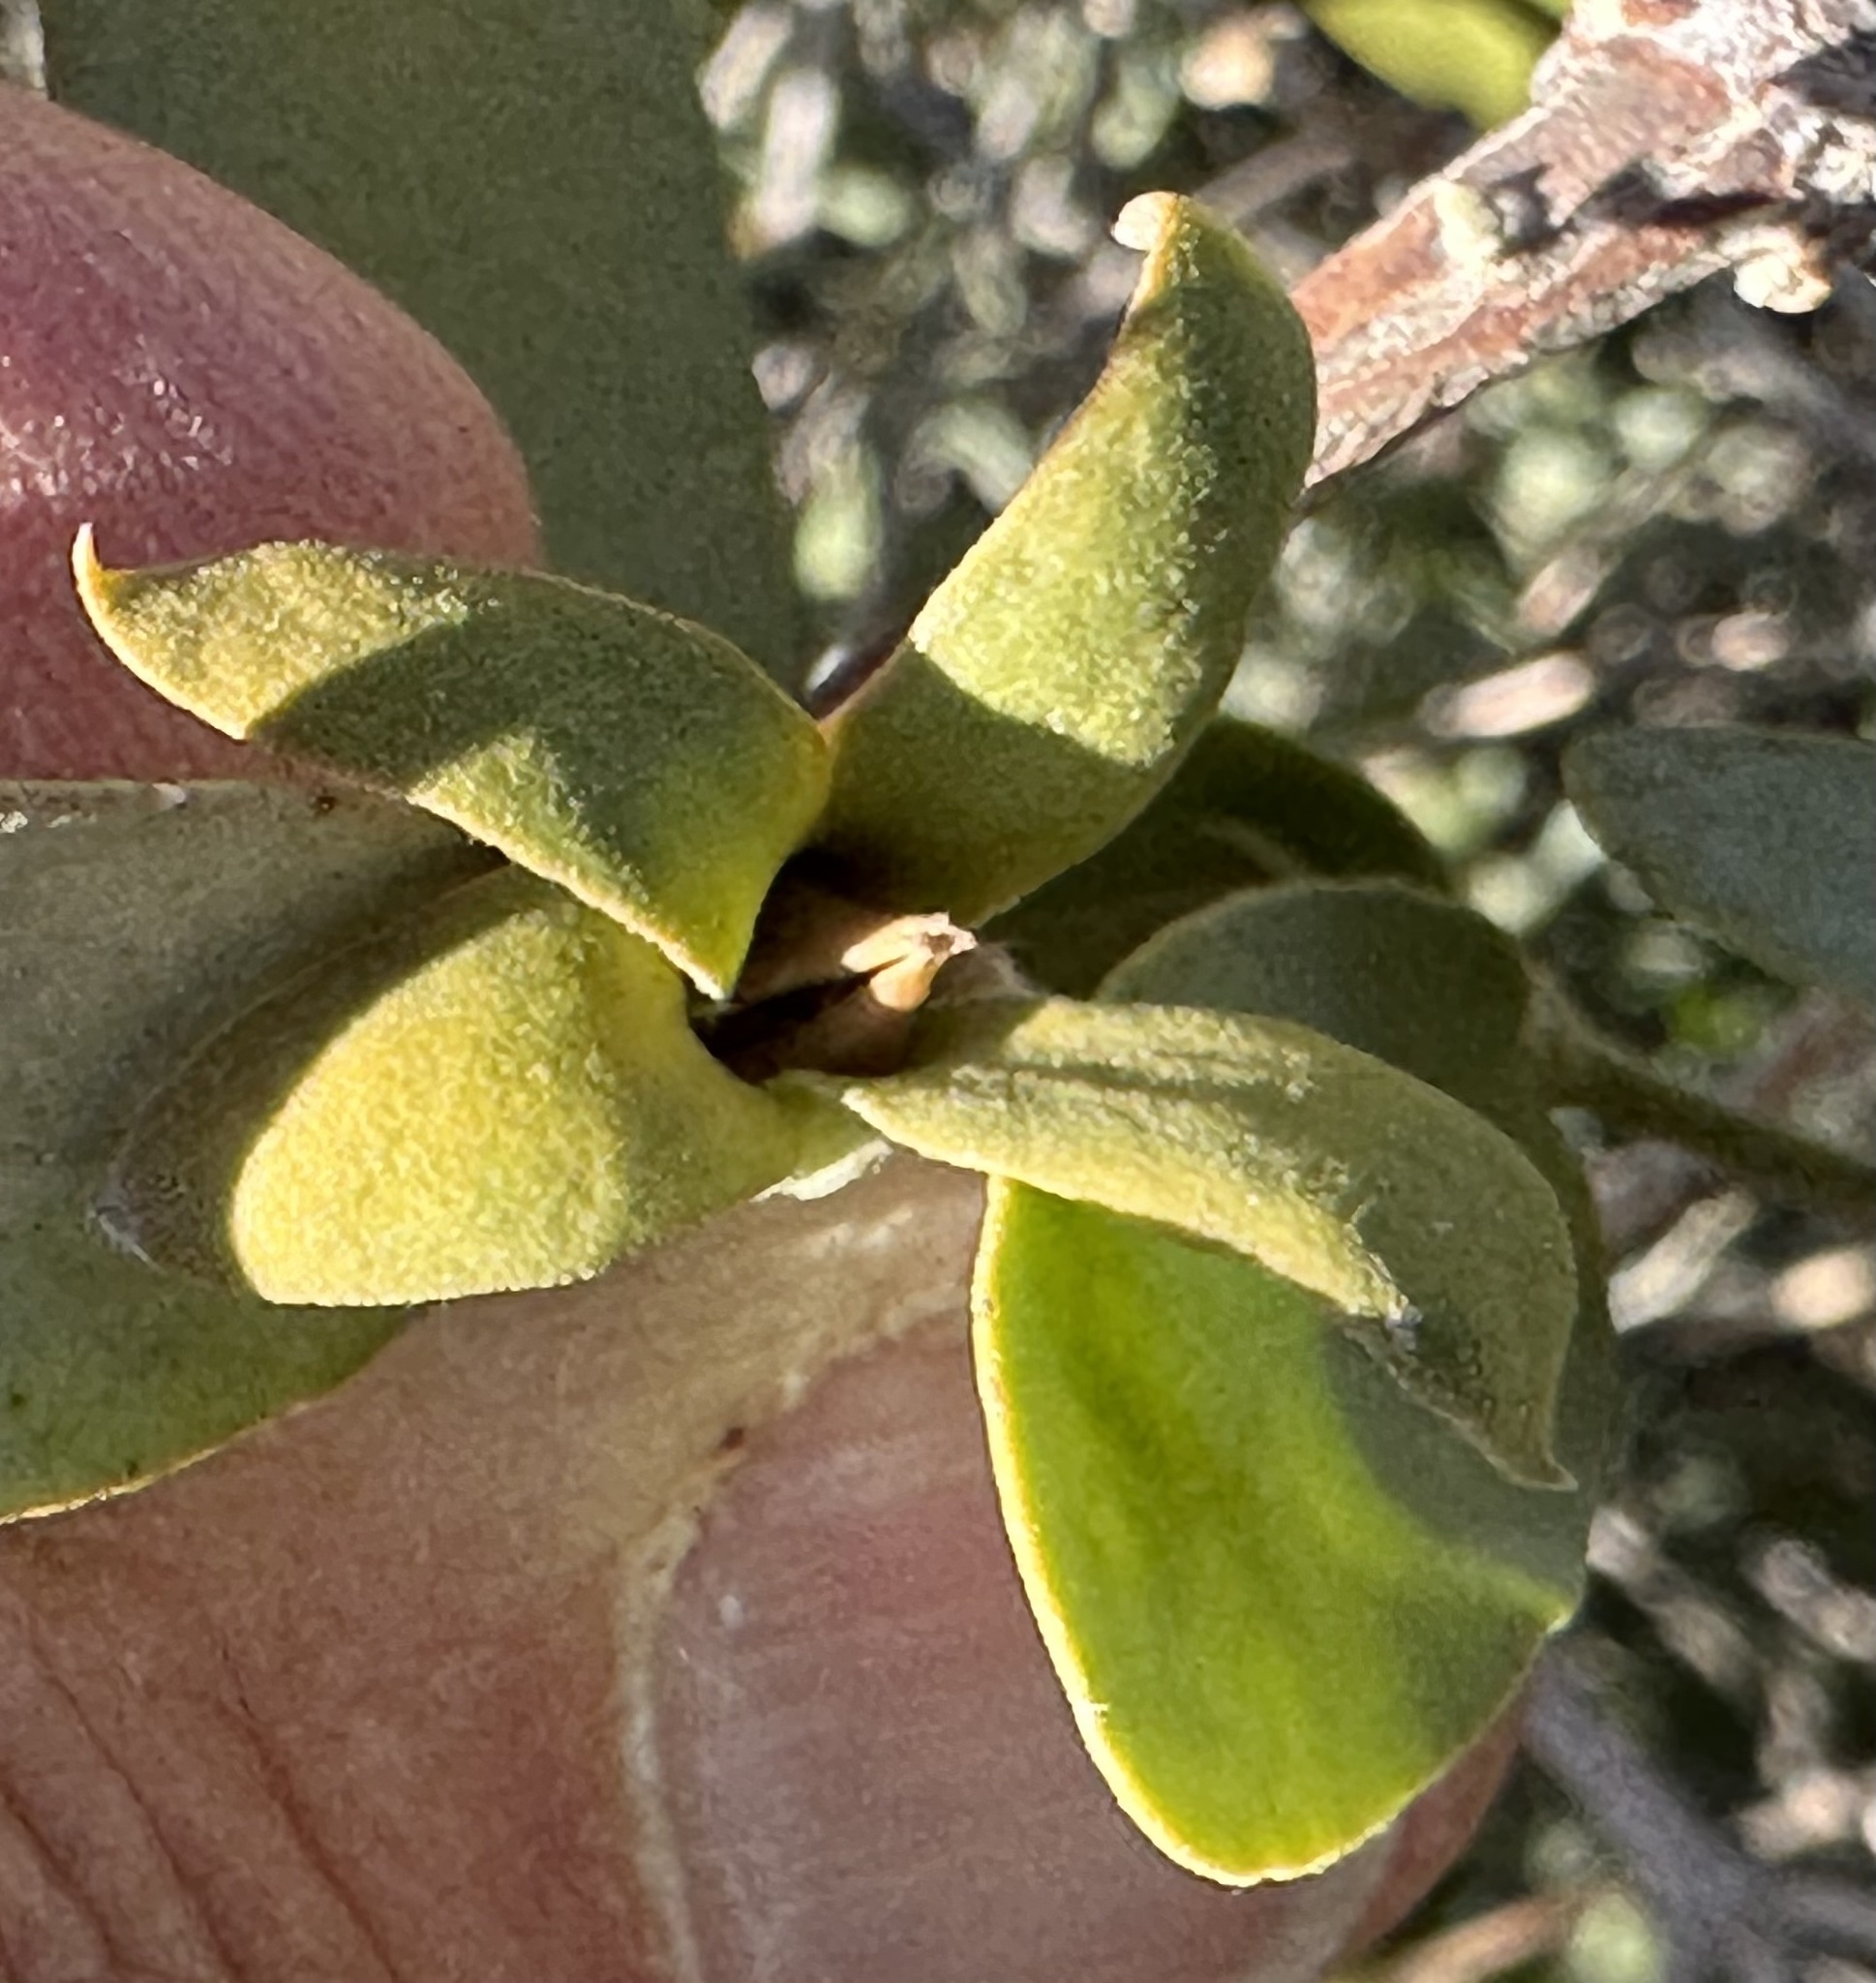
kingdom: Plantae
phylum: Tracheophyta
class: Magnoliopsida
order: Caryophyllales
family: Simmondsiaceae
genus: Simmondsia
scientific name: Simmondsia chinensis
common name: Jojoba
